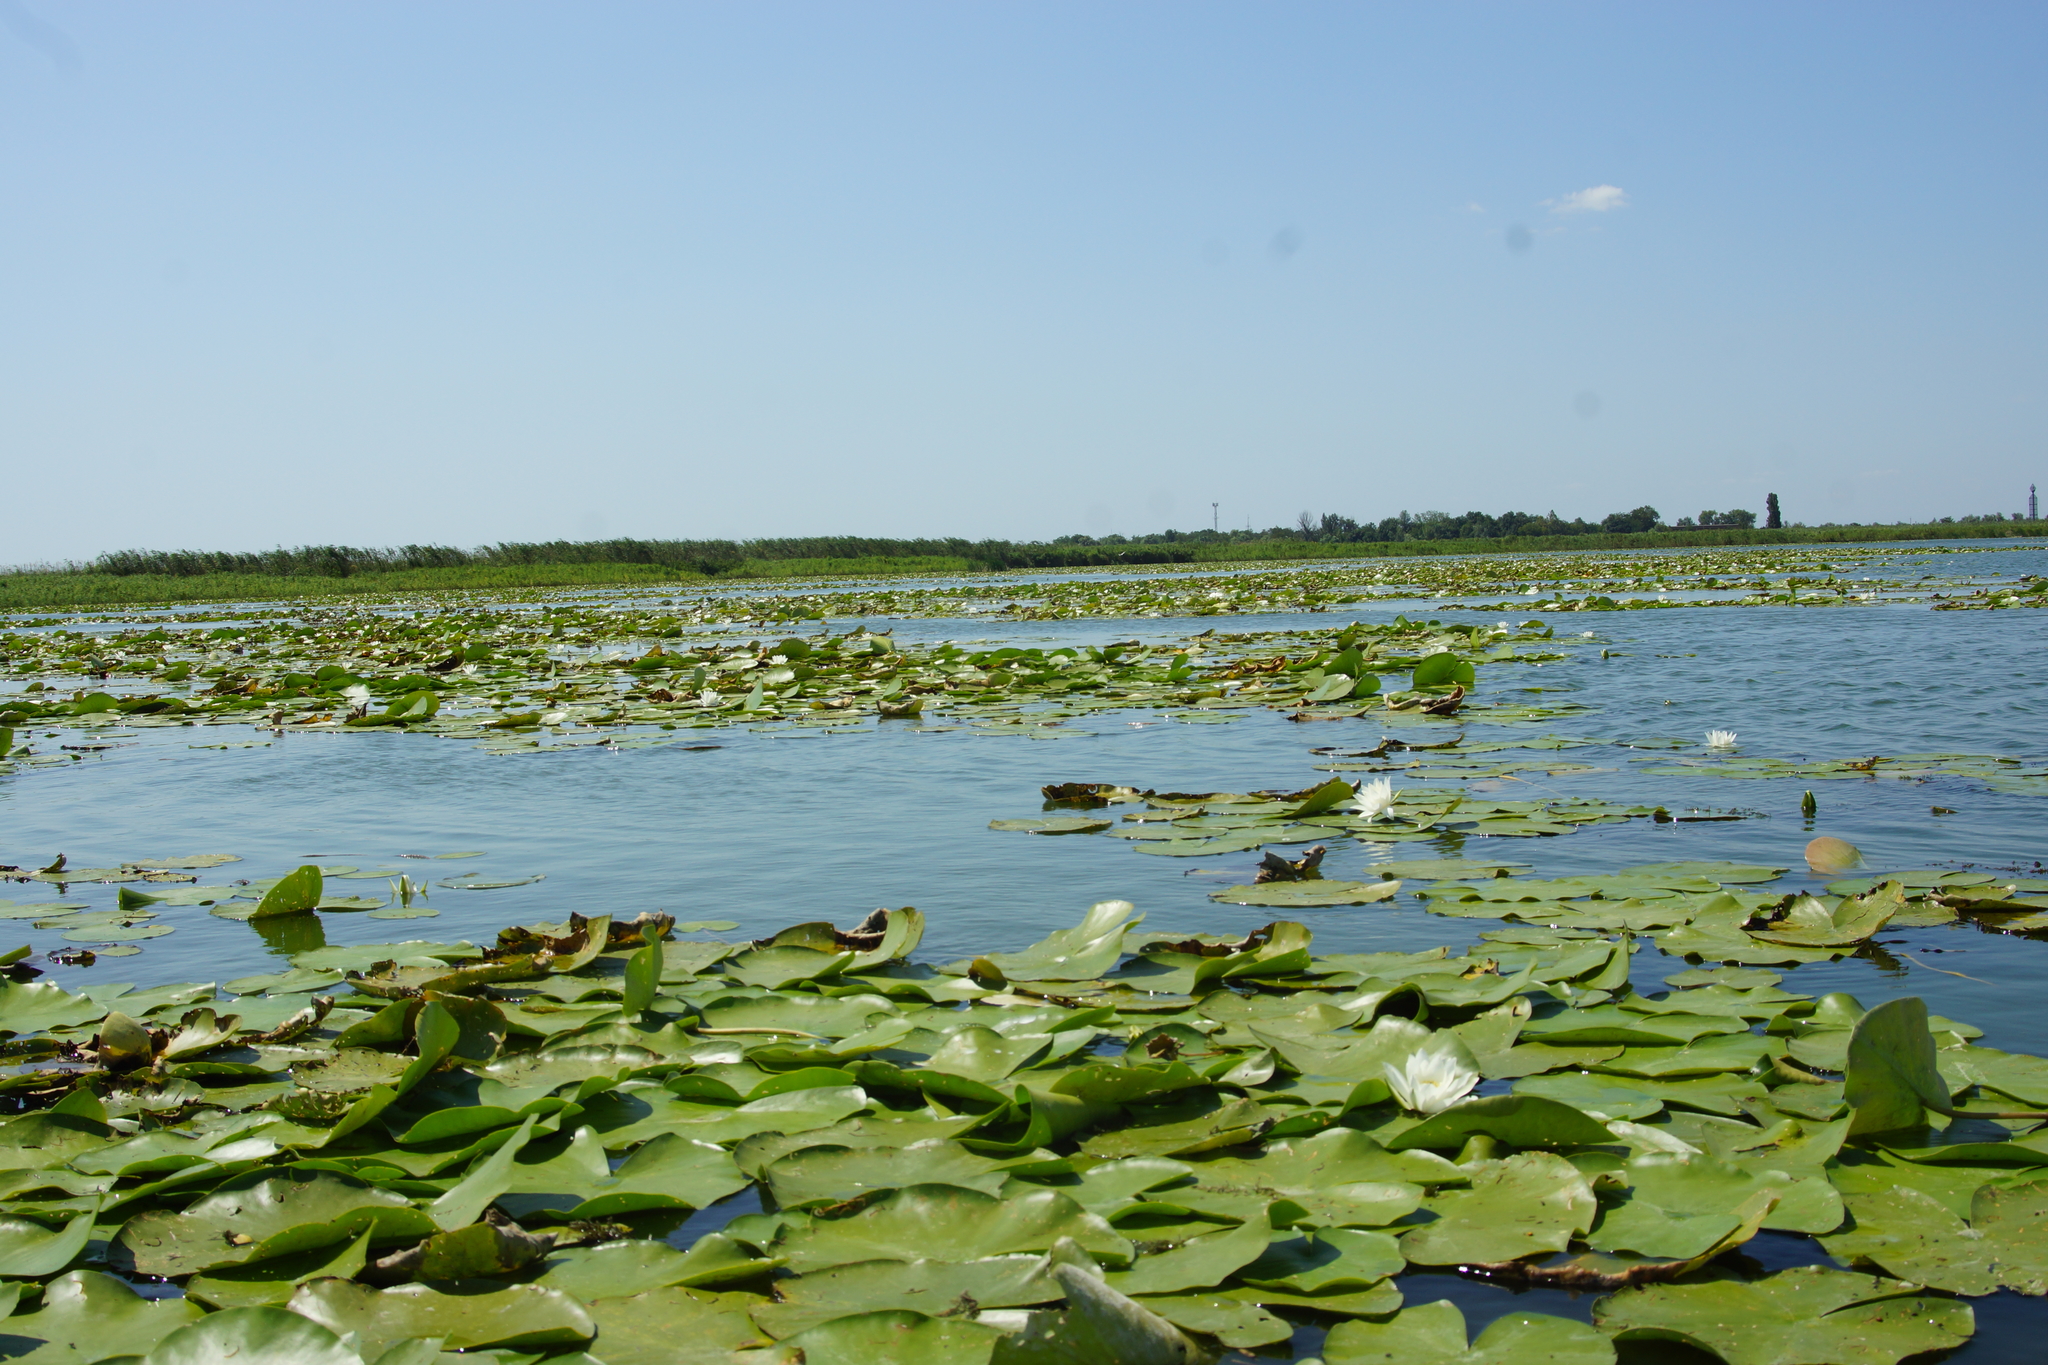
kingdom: Plantae
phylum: Tracheophyta
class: Magnoliopsida
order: Nymphaeales
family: Nymphaeaceae
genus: Nymphaea
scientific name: Nymphaea alba
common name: White water-lily
